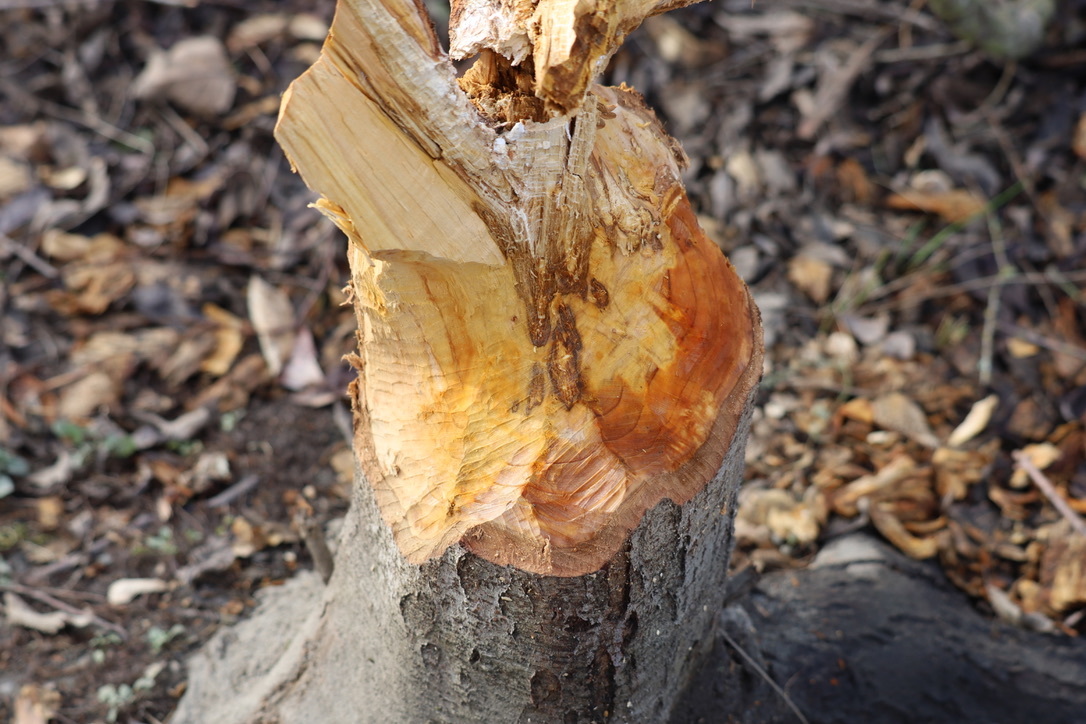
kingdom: Animalia
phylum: Chordata
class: Mammalia
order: Rodentia
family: Castoridae
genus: Castor
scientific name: Castor canadensis
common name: American beaver
